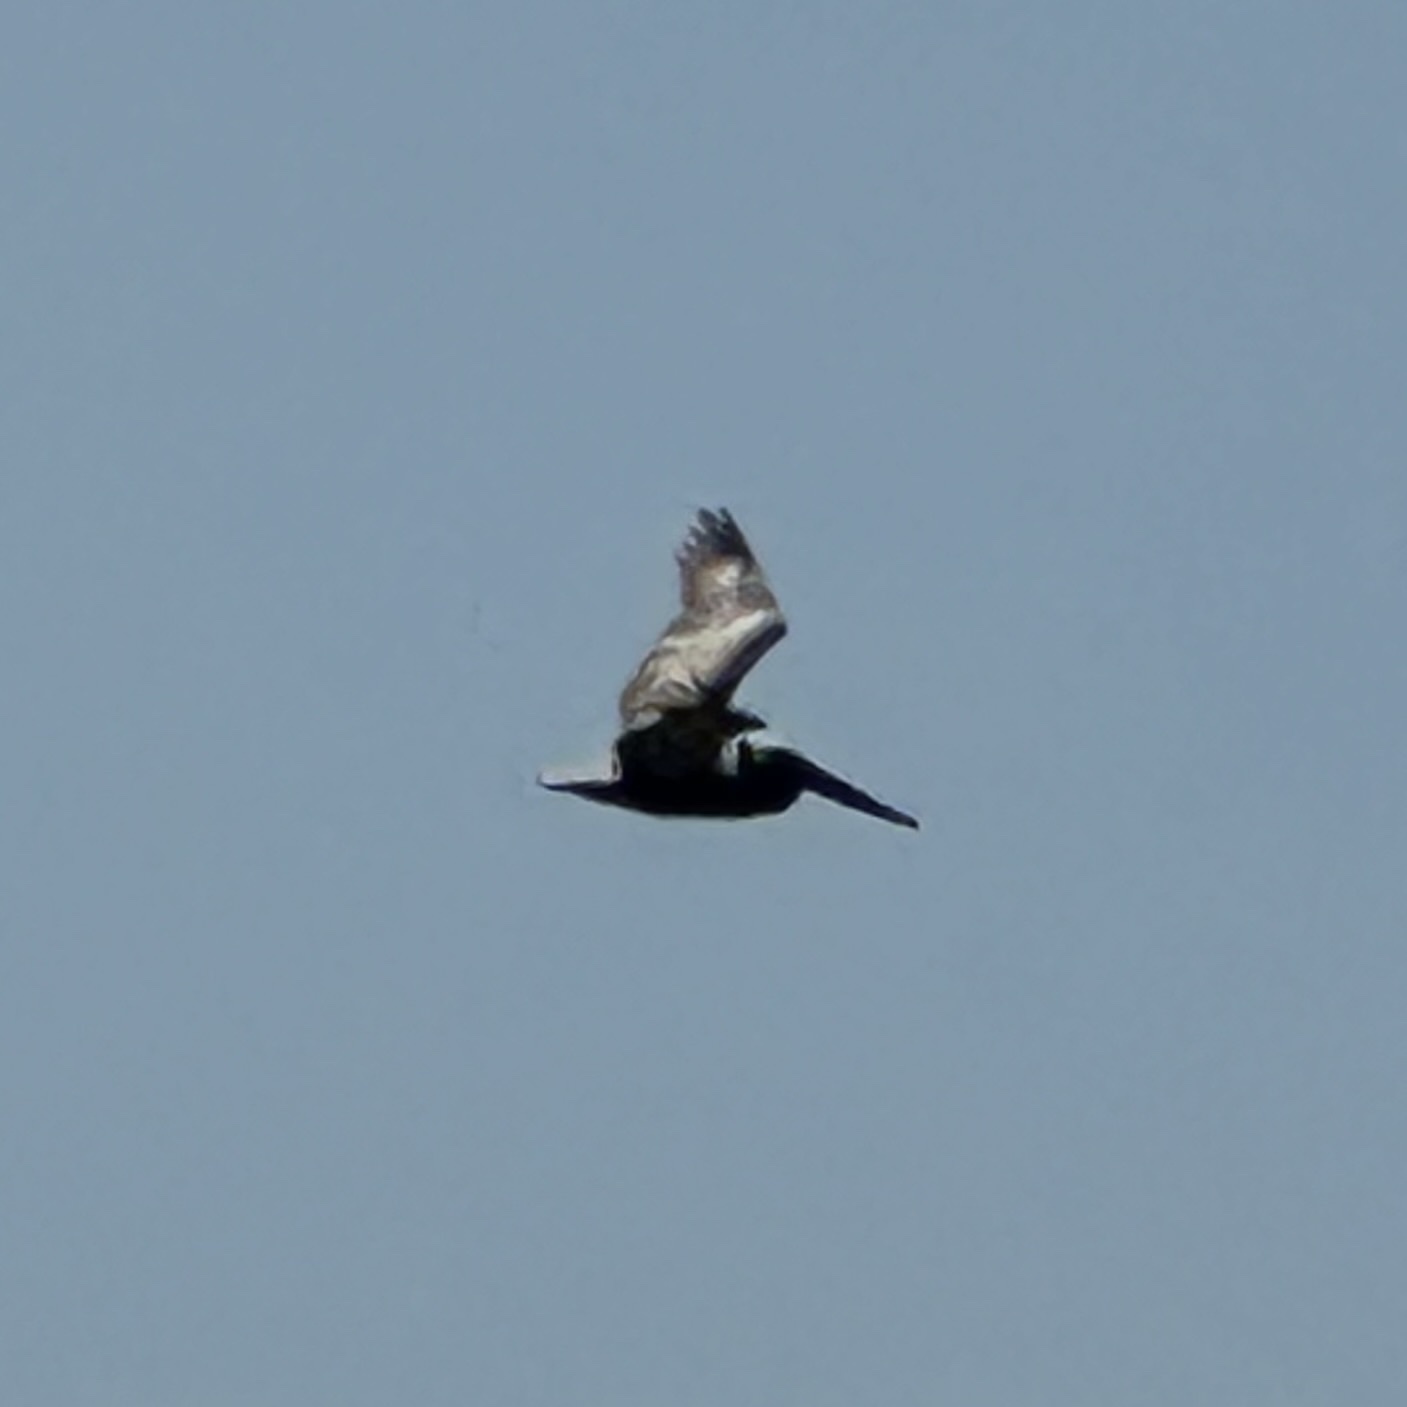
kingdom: Animalia
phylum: Chordata
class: Aves
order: Pelecaniformes
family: Pelecanidae
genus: Pelecanus
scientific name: Pelecanus occidentalis
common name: Brown pelican
